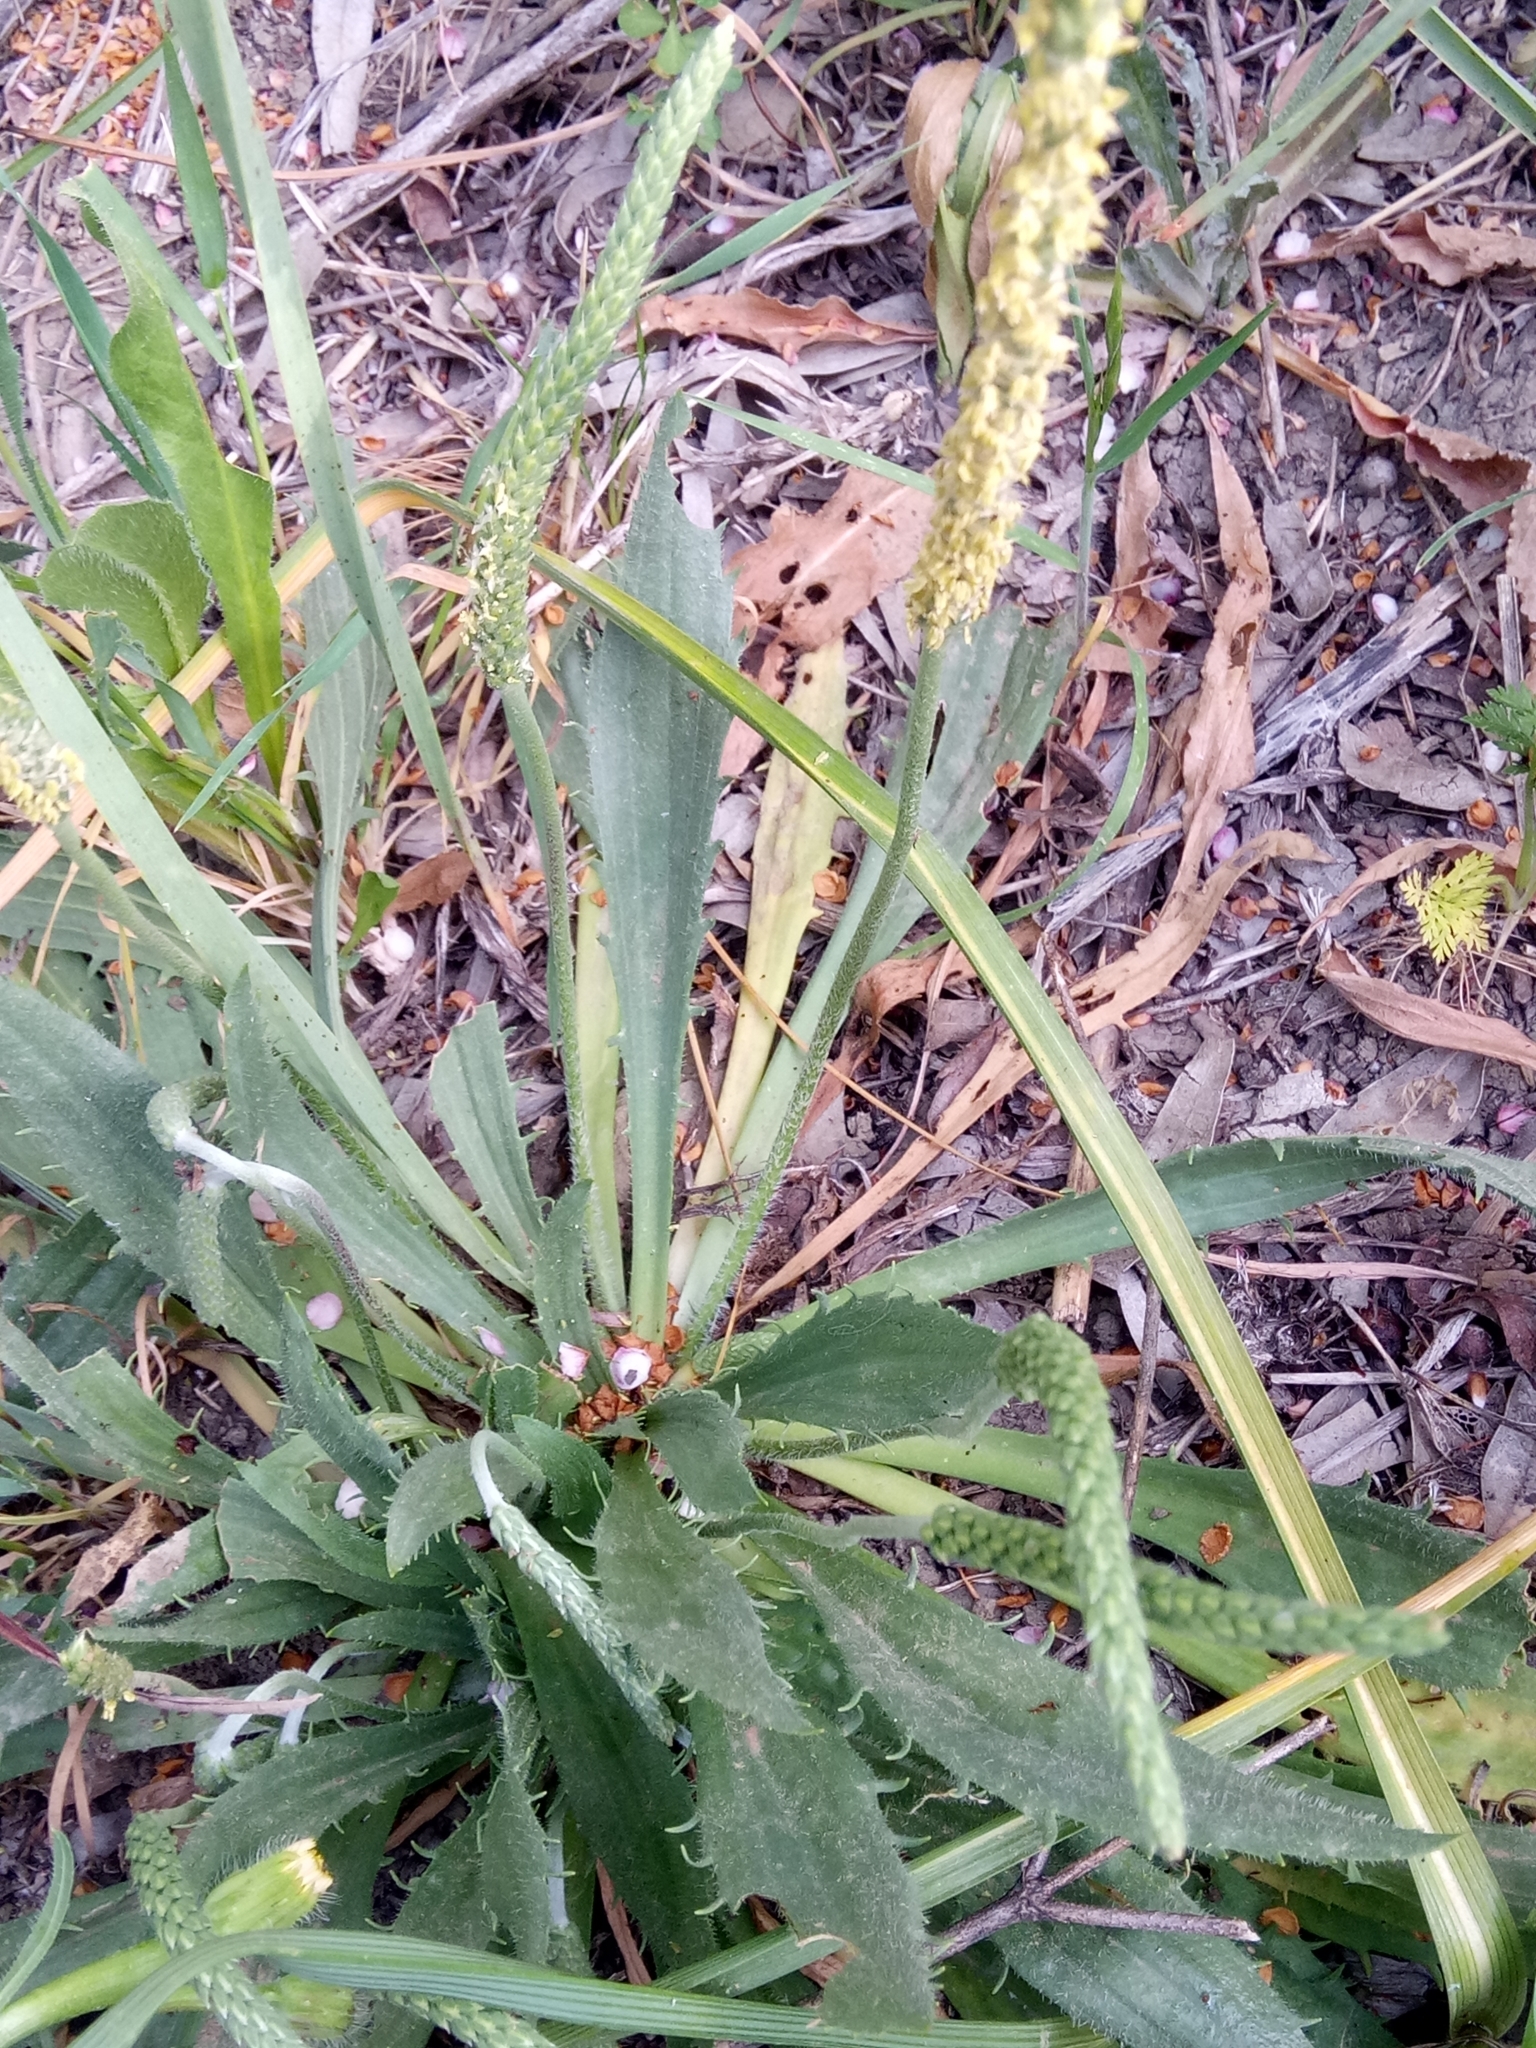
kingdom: Plantae
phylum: Tracheophyta
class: Magnoliopsida
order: Lamiales
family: Plantaginaceae
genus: Plantago
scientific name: Plantago serraria
